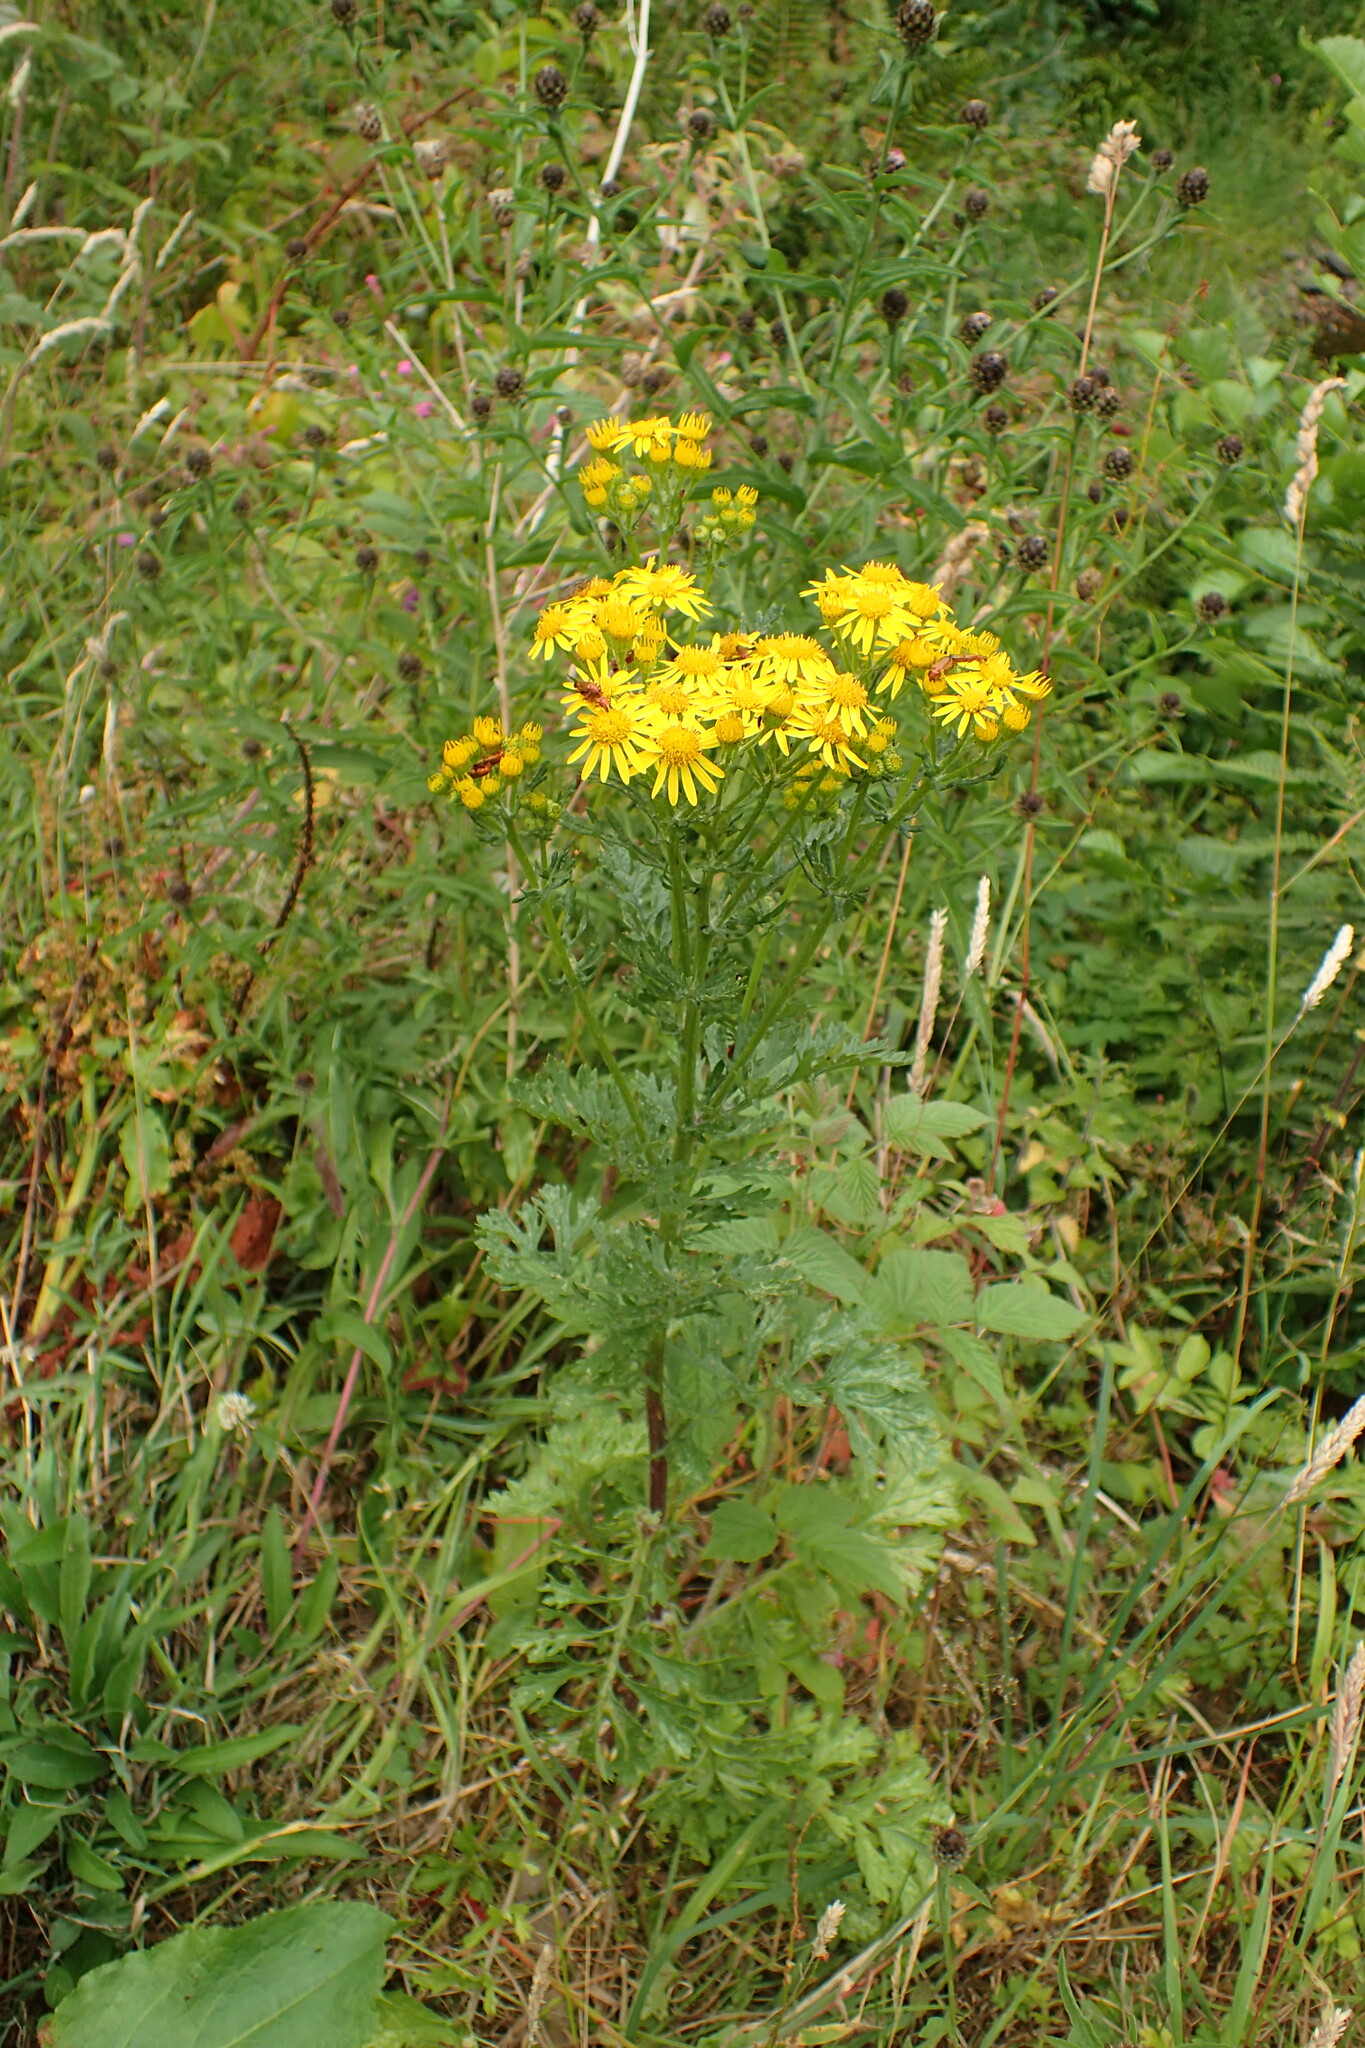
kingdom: Plantae
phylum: Tracheophyta
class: Magnoliopsida
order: Asterales
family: Asteraceae
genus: Jacobaea
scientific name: Jacobaea vulgaris
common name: Stinking willie
